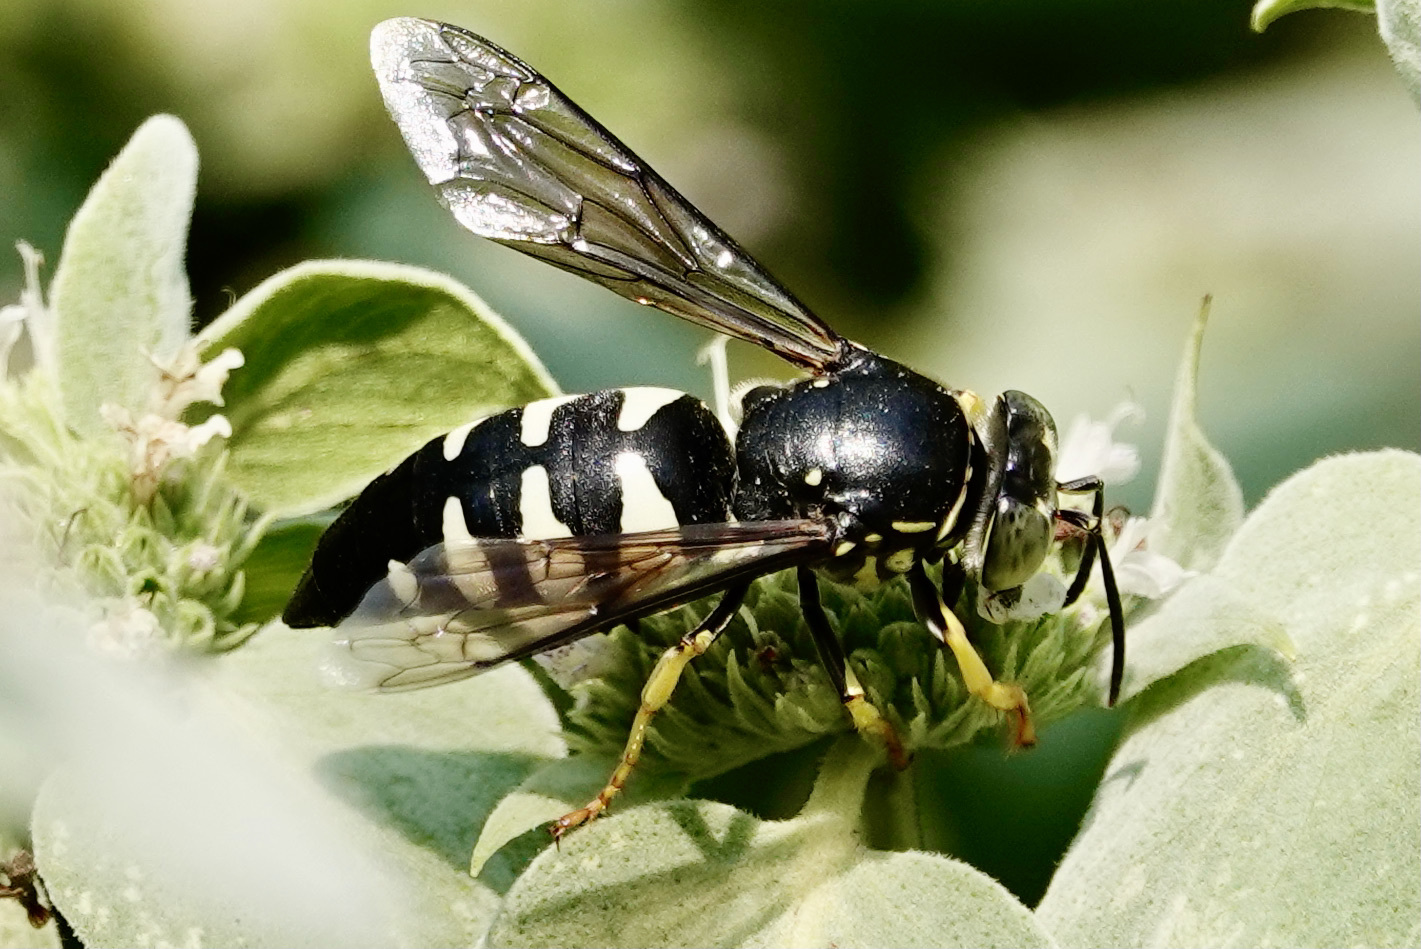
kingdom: Animalia
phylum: Arthropoda
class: Insecta
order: Hymenoptera
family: Crabronidae
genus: Bicyrtes
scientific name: Bicyrtes quadrifasciatus
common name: Four-banded stink bug hunter wasp
